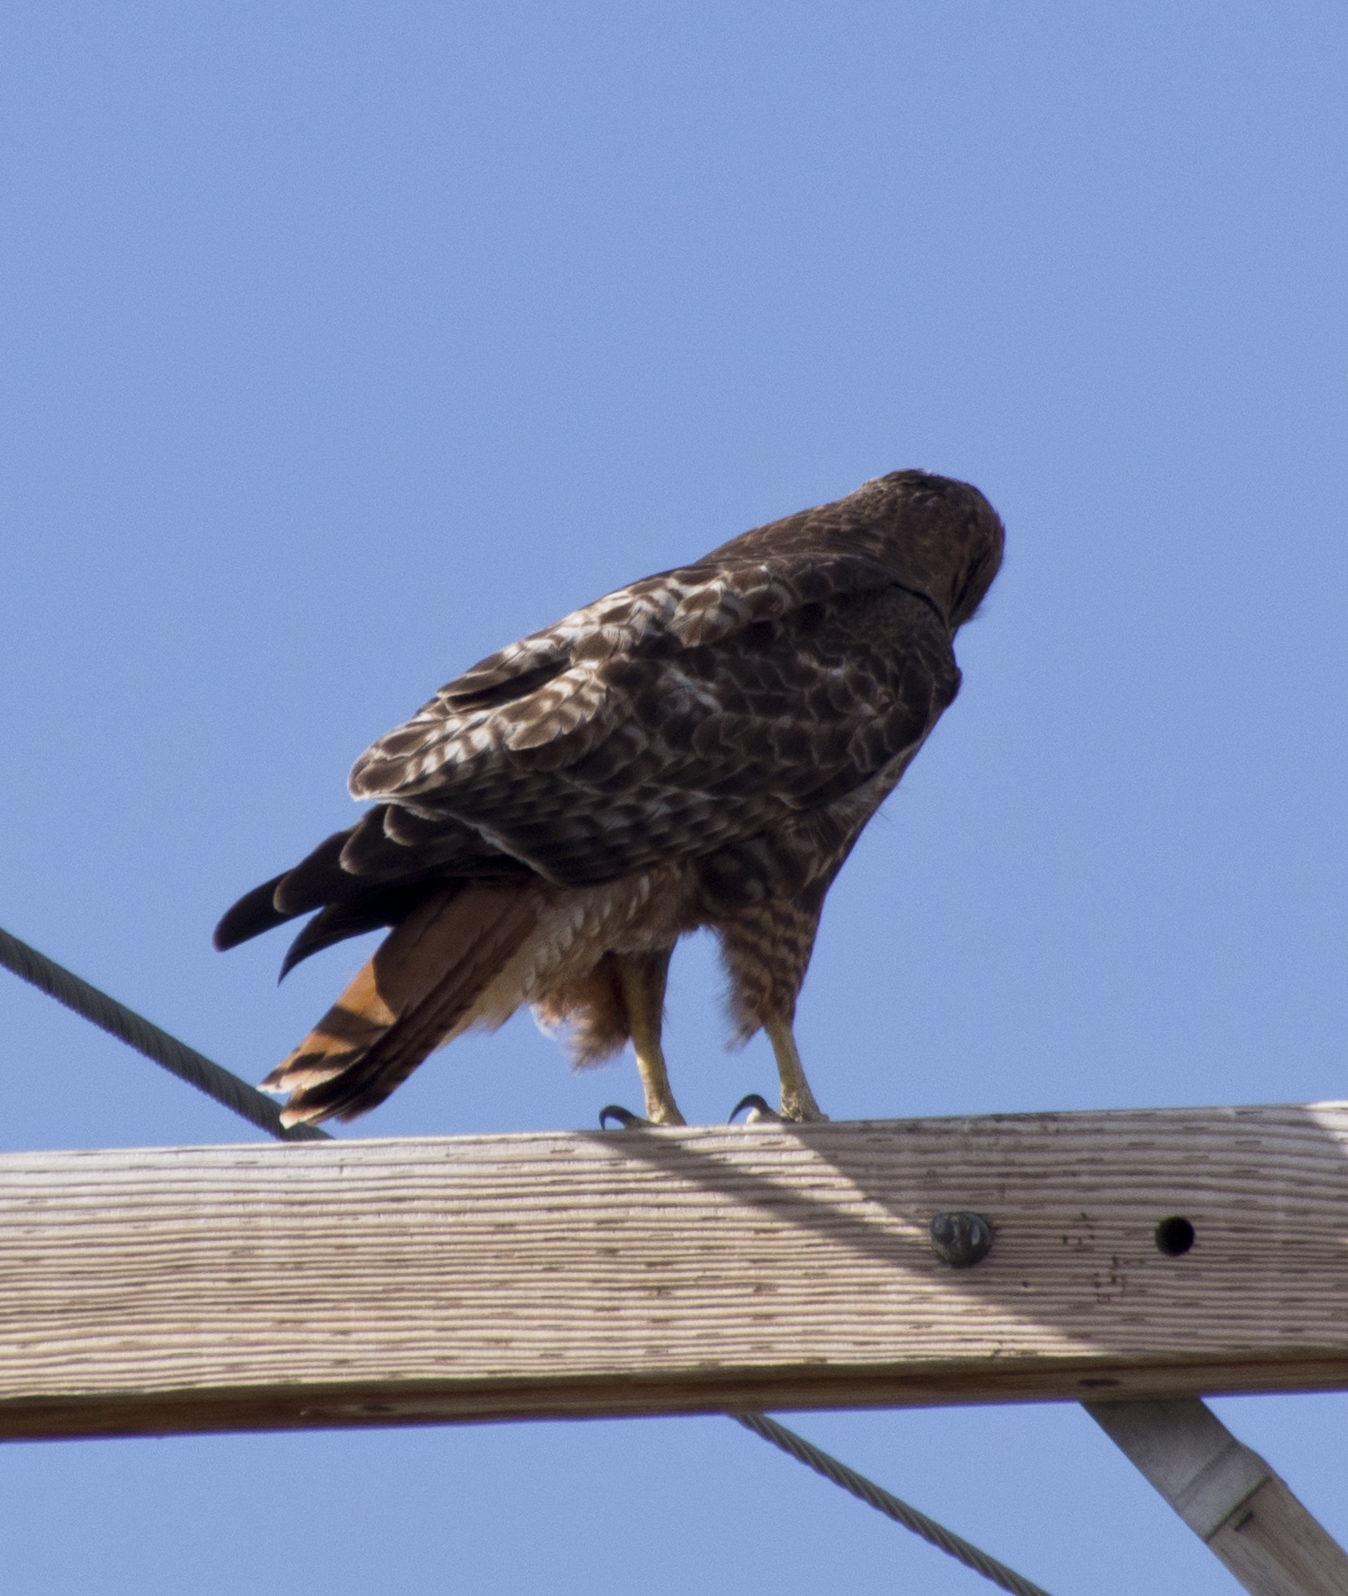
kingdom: Animalia
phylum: Chordata
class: Aves
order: Accipitriformes
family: Accipitridae
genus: Buteo
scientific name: Buteo jamaicensis
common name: Red-tailed hawk
